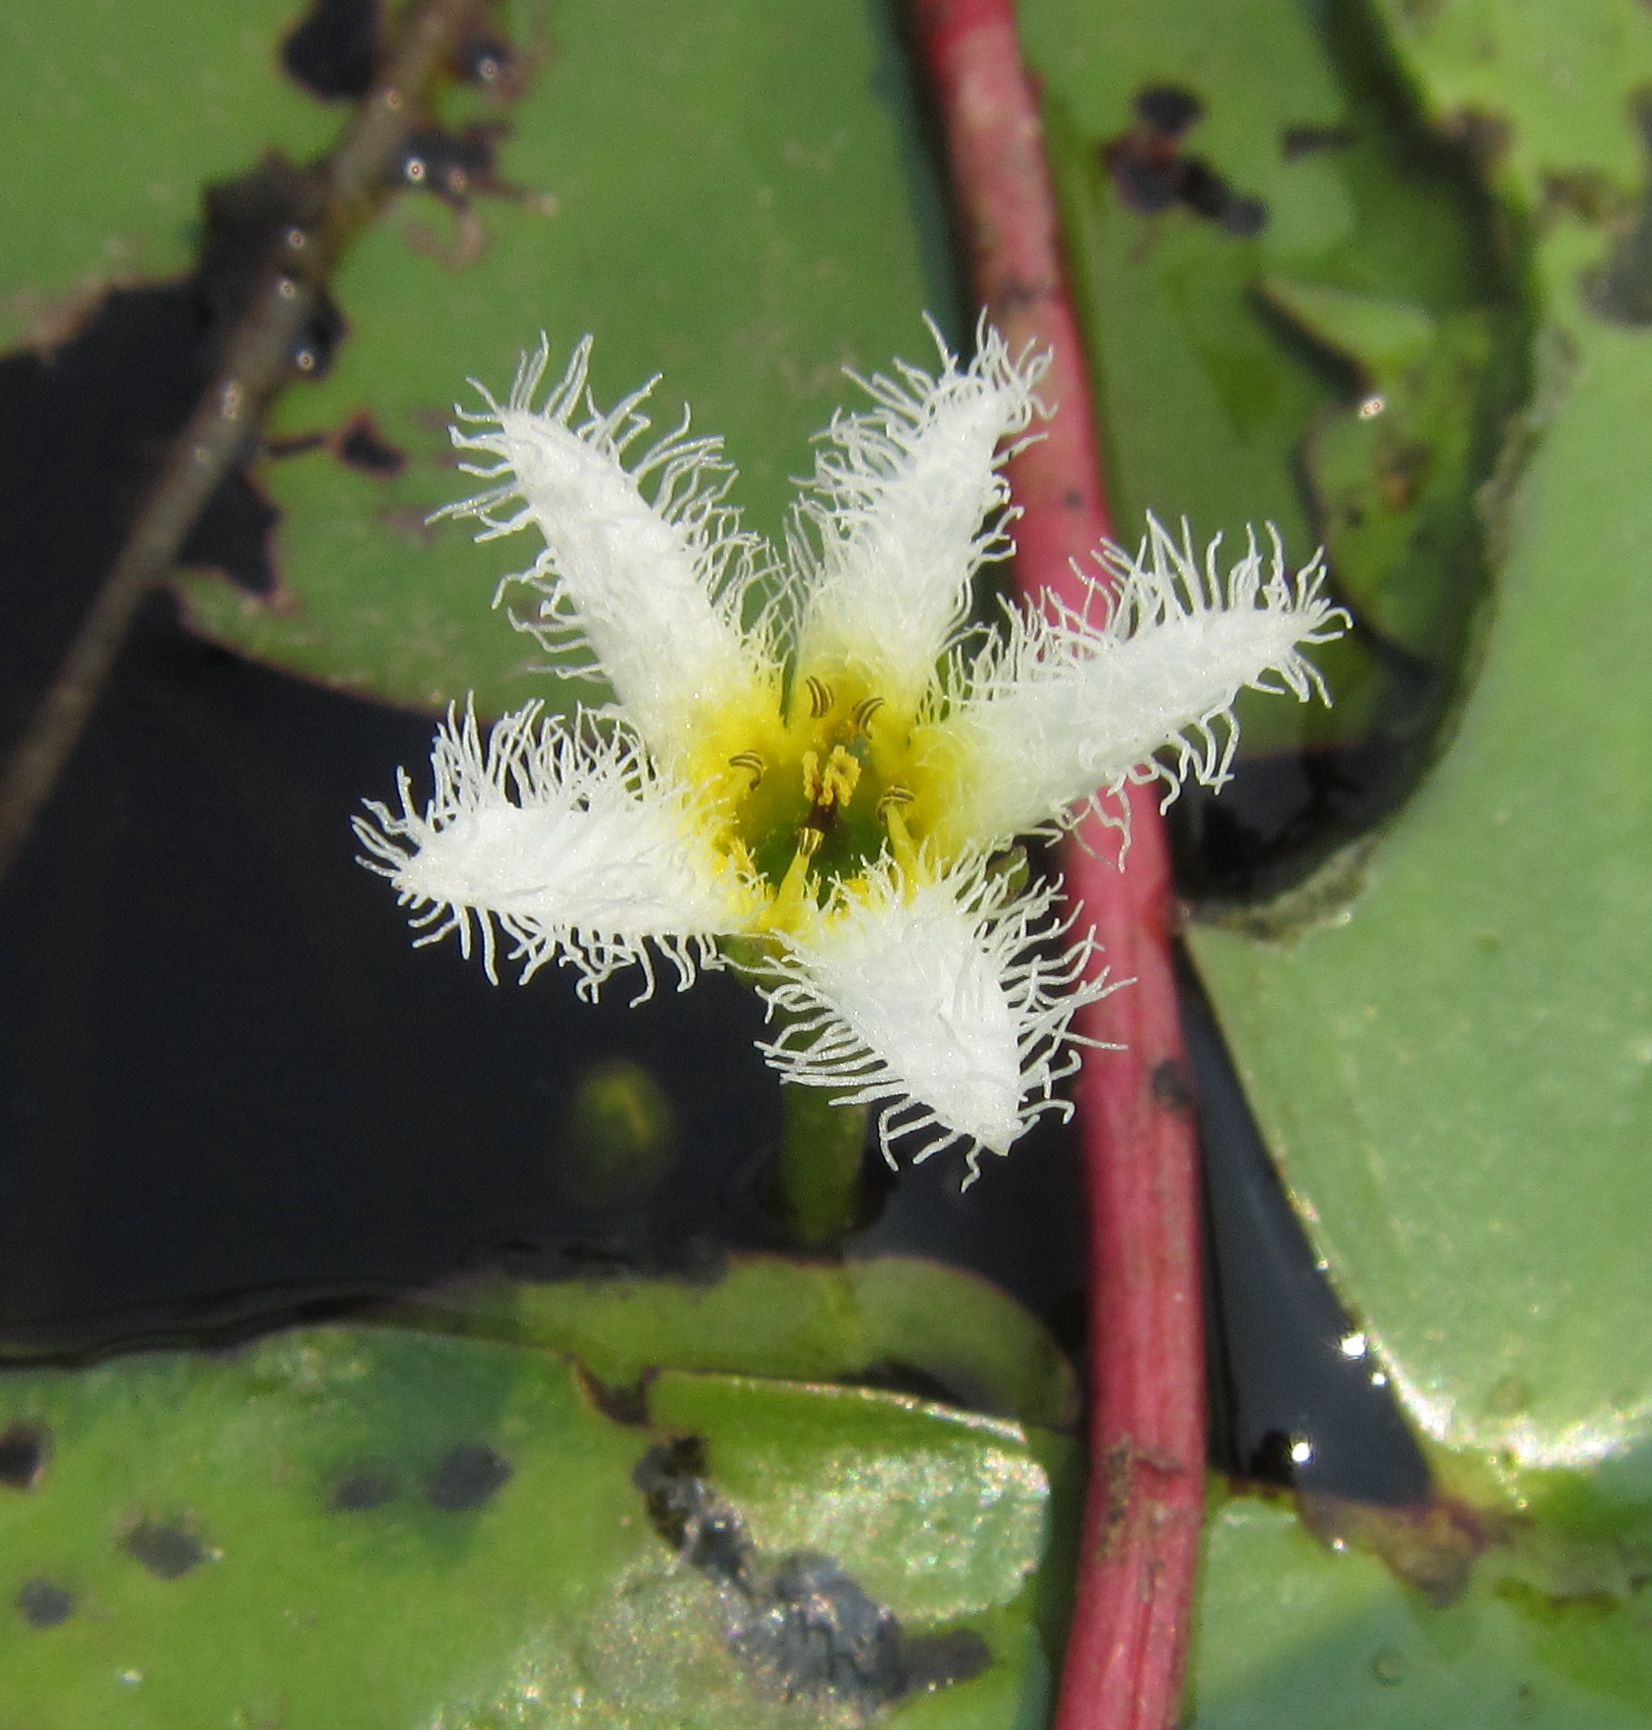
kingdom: Plantae
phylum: Tracheophyta
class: Magnoliopsida
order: Asterales
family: Menyanthaceae
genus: Nymphoides
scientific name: Nymphoides senegalensis
